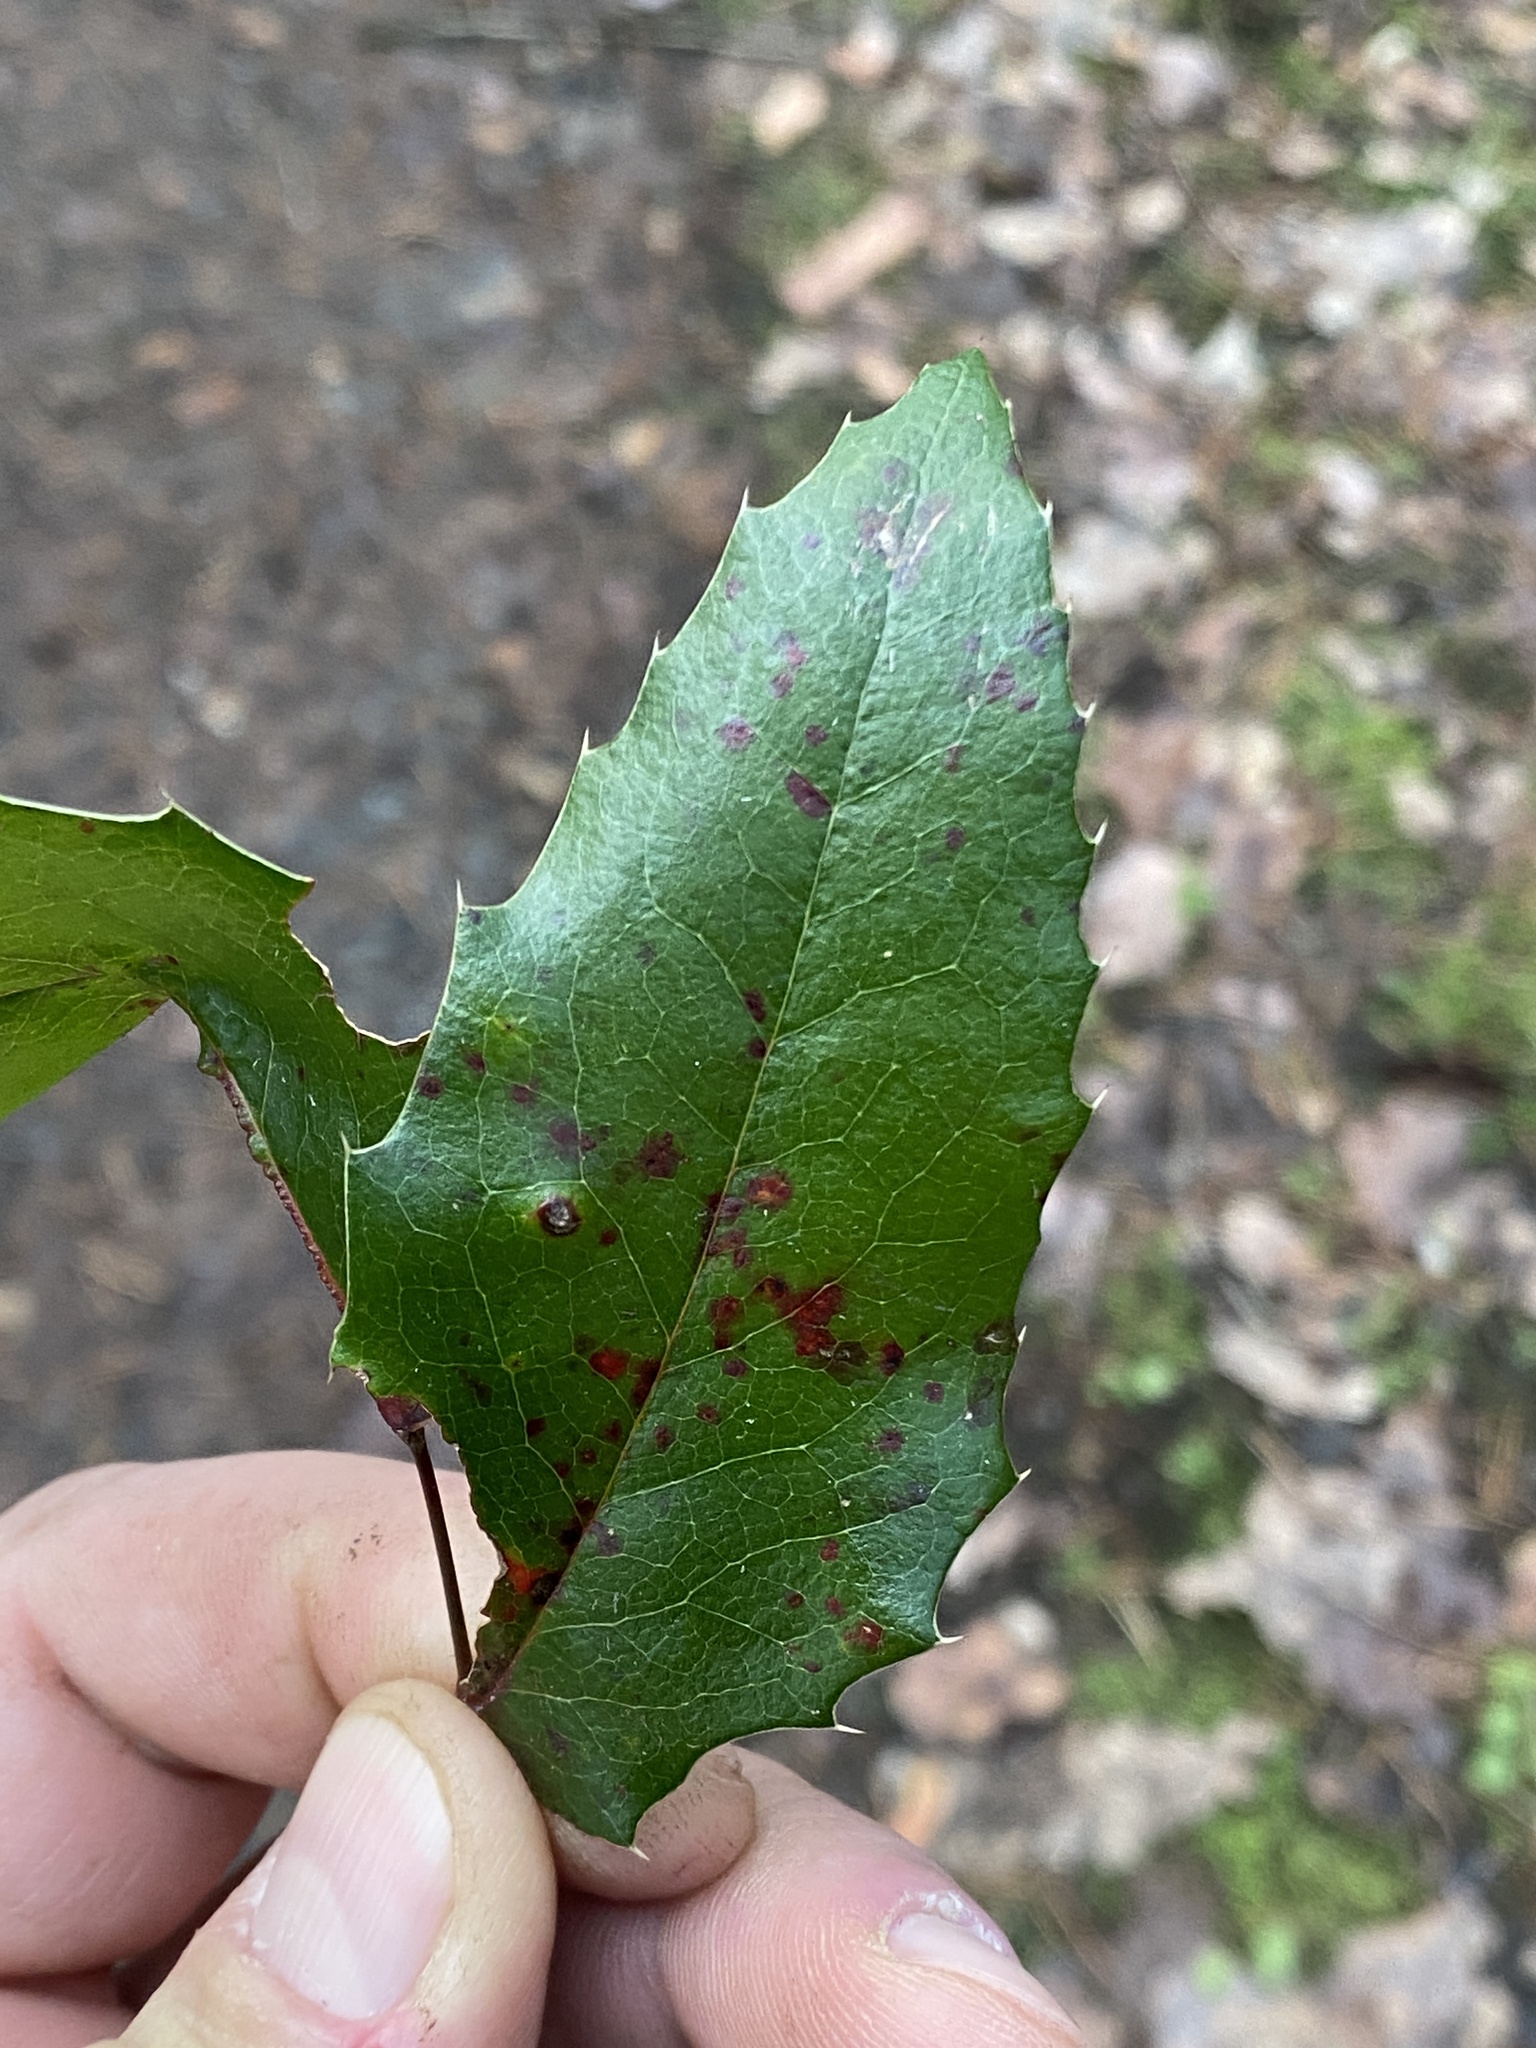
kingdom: Fungi
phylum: Basidiomycota
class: Pucciniomycetes
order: Pucciniales
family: Pucciniaceae
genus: Cumminsiella
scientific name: Cumminsiella mirabilissima
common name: Mahonia rust
